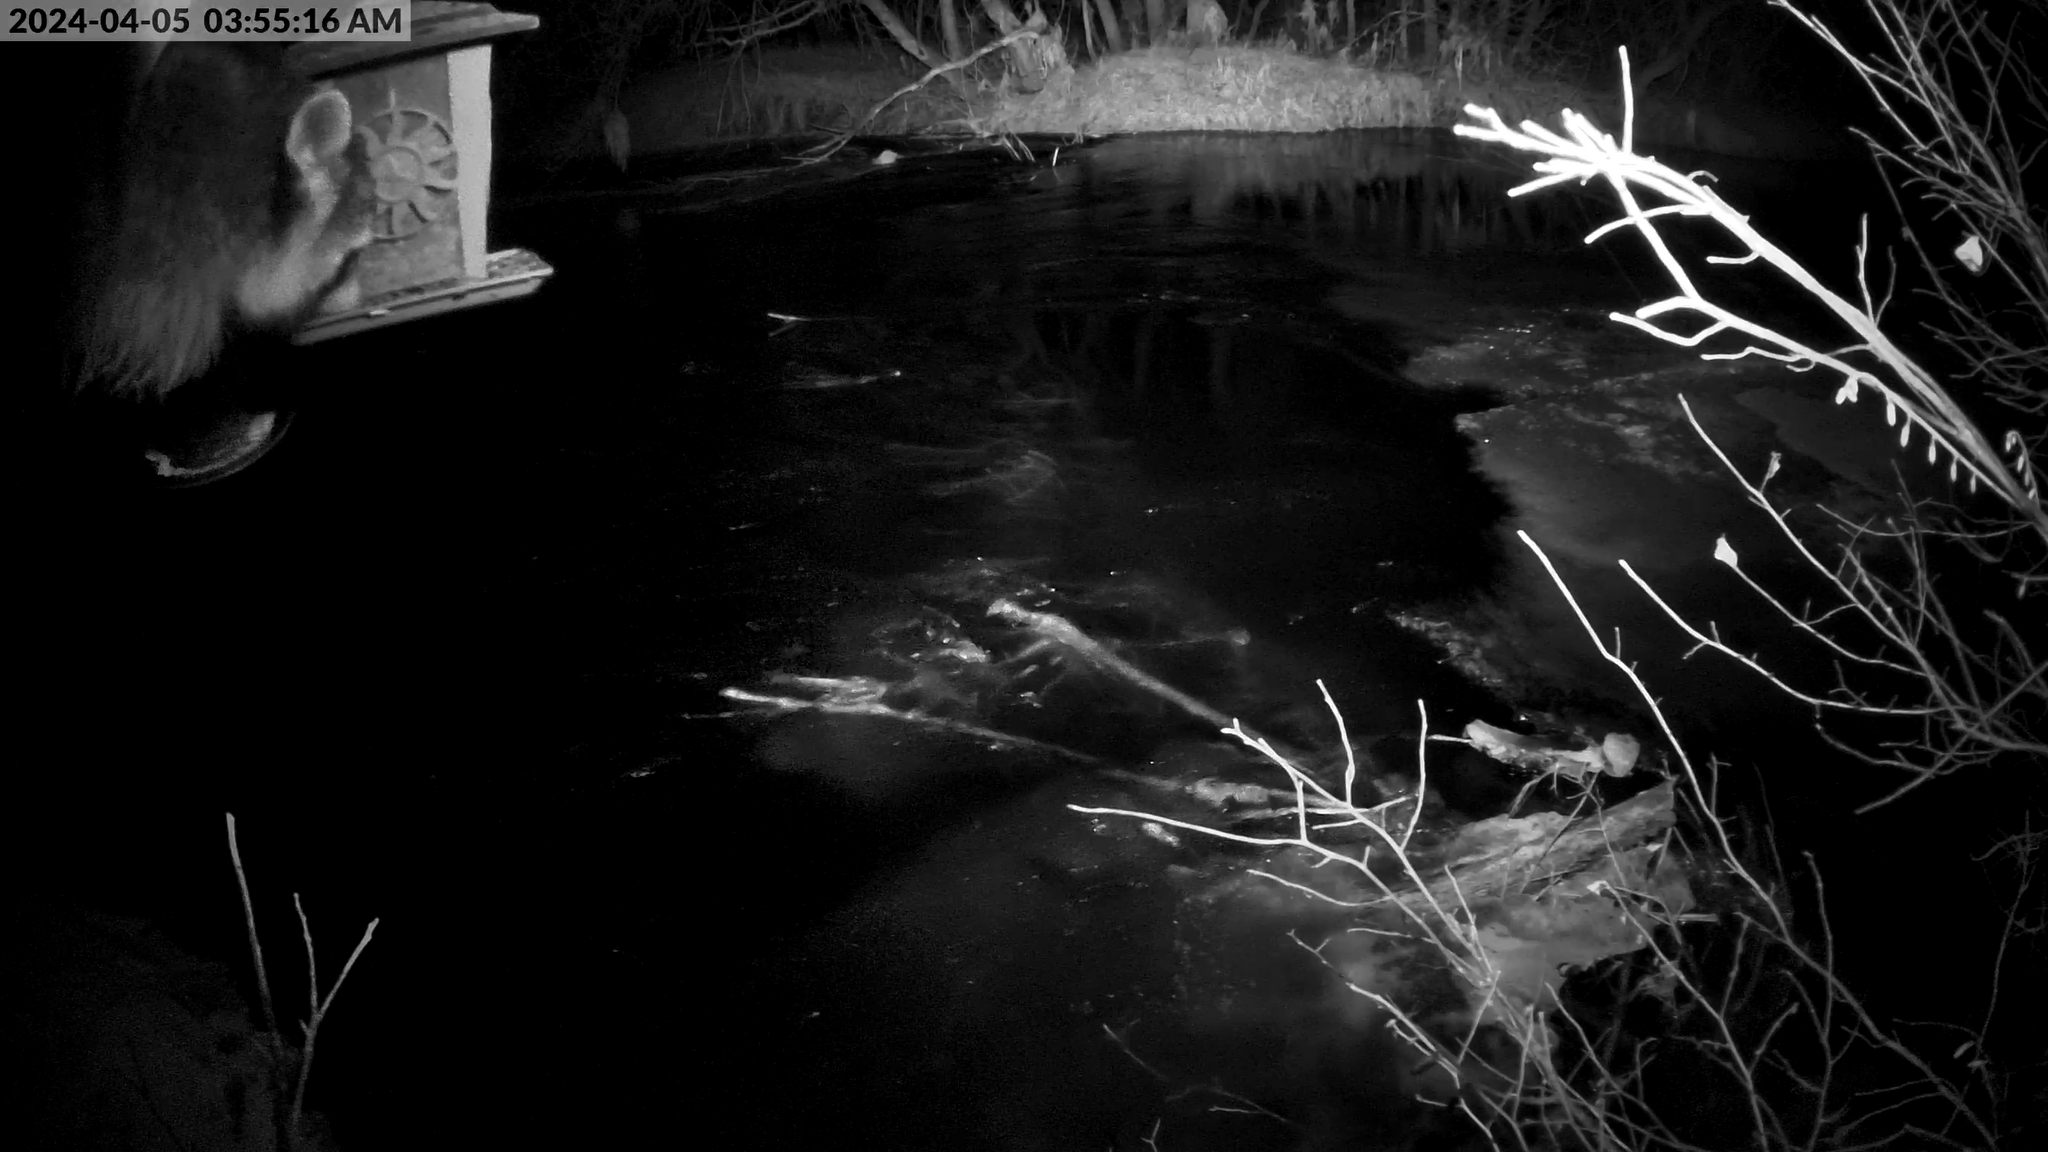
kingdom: Animalia
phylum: Chordata
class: Mammalia
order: Carnivora
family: Procyonidae
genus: Procyon
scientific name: Procyon lotor
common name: Raccoon
